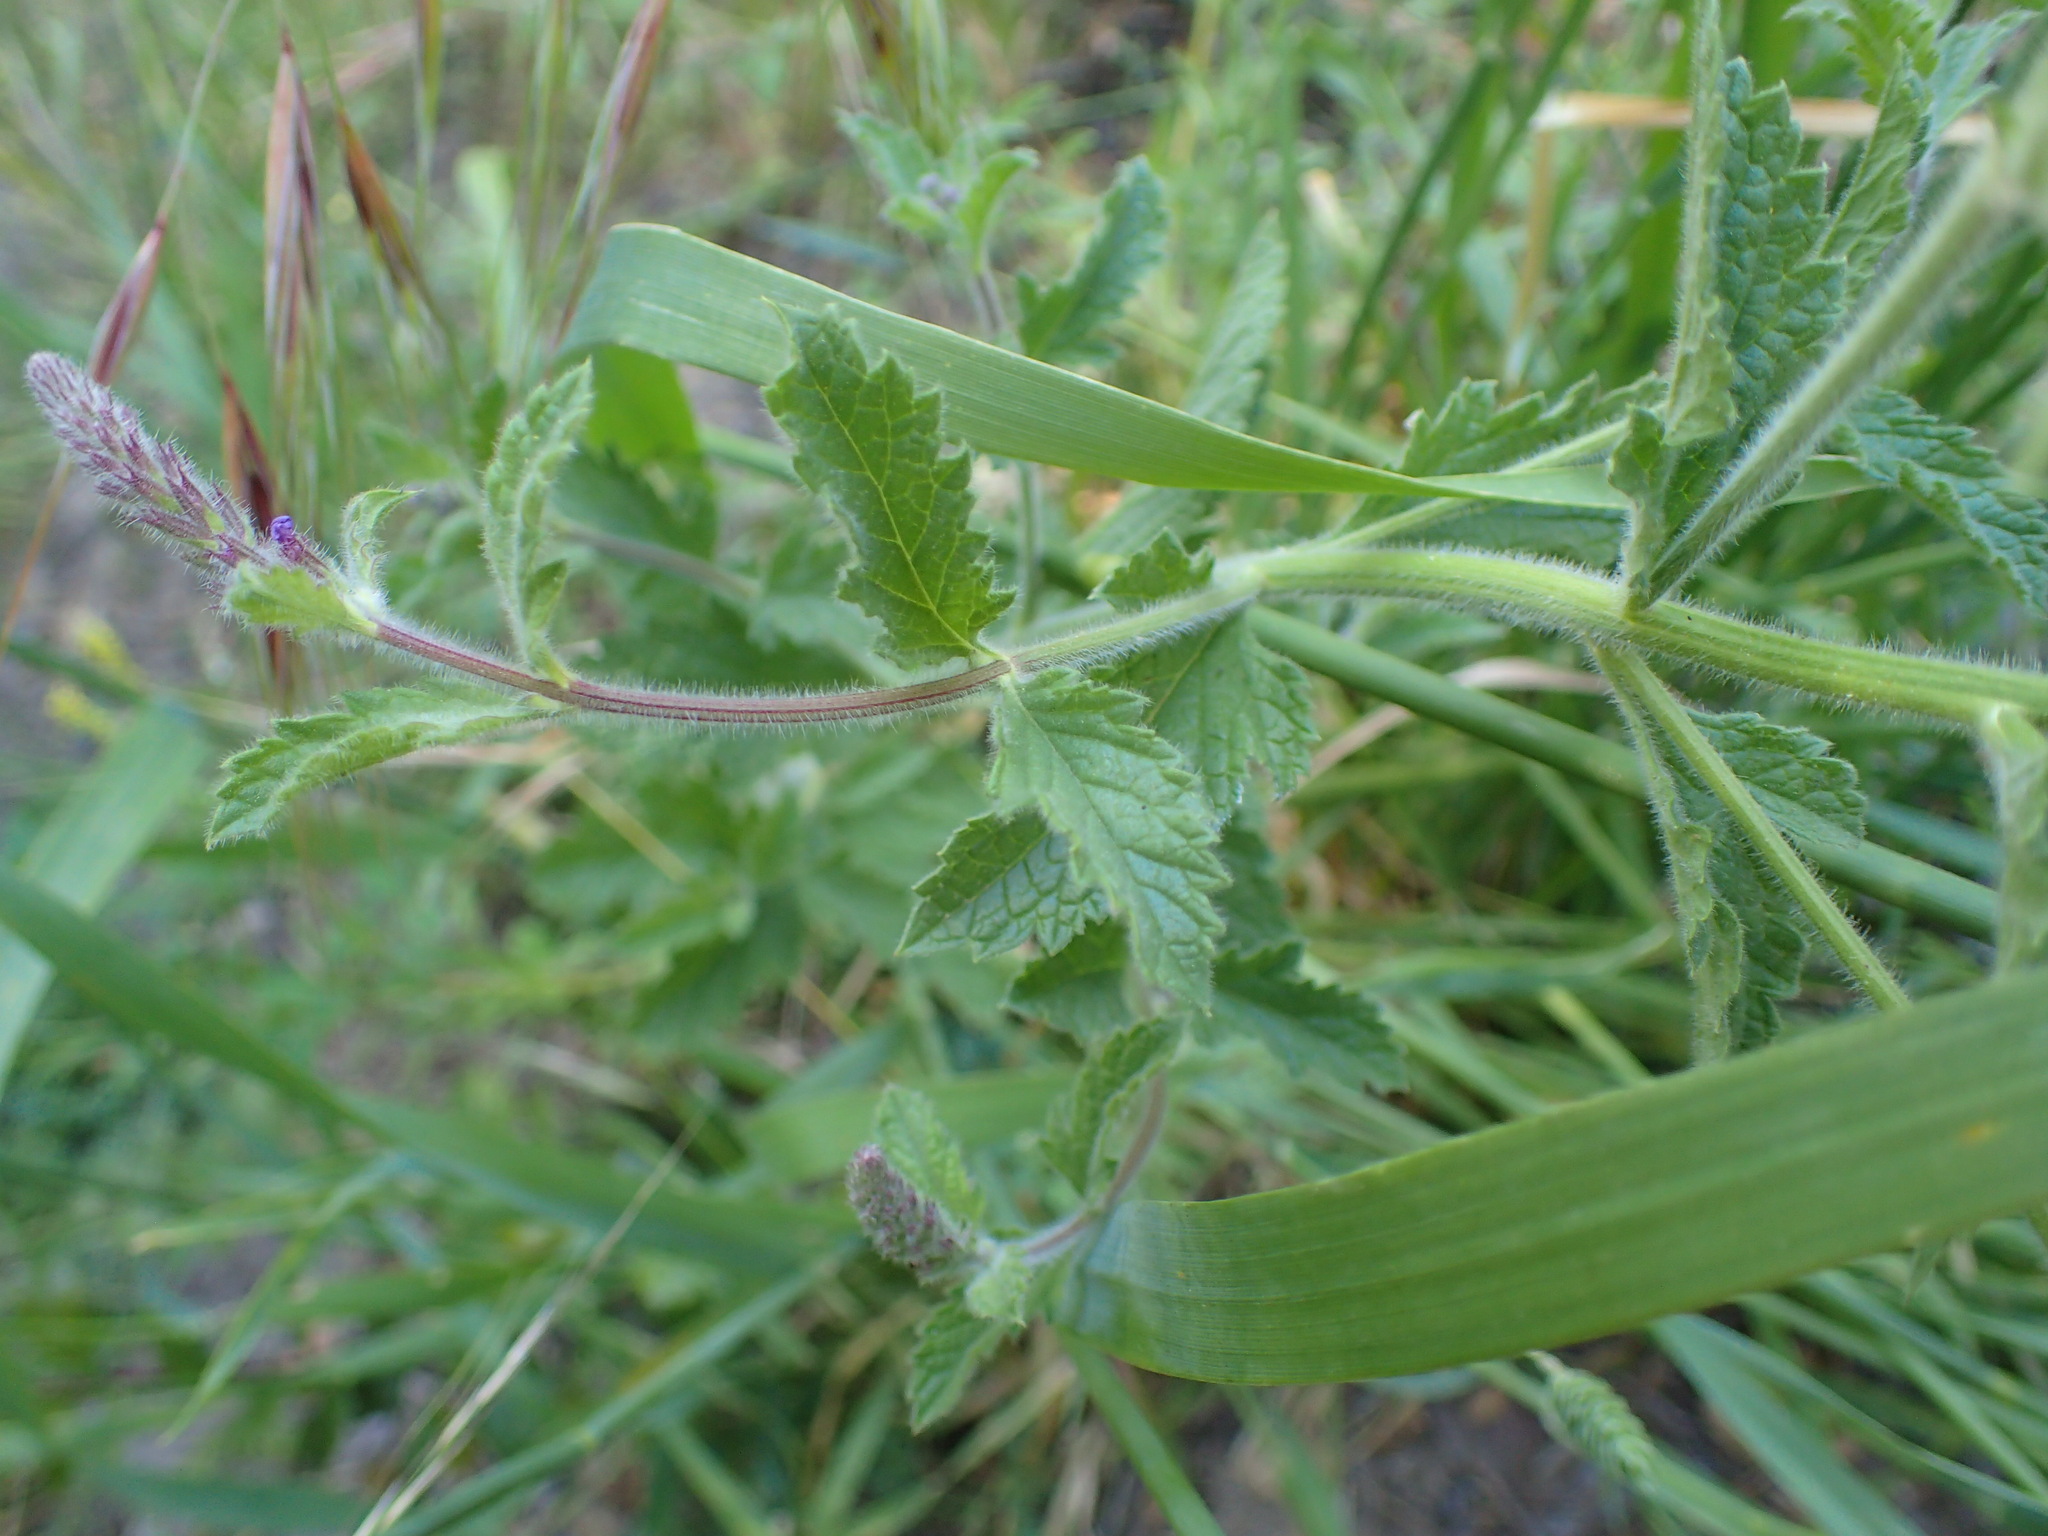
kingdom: Plantae
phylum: Tracheophyta
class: Magnoliopsida
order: Lamiales
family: Verbenaceae
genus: Verbena
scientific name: Verbena lasiostachys
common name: Vervain
